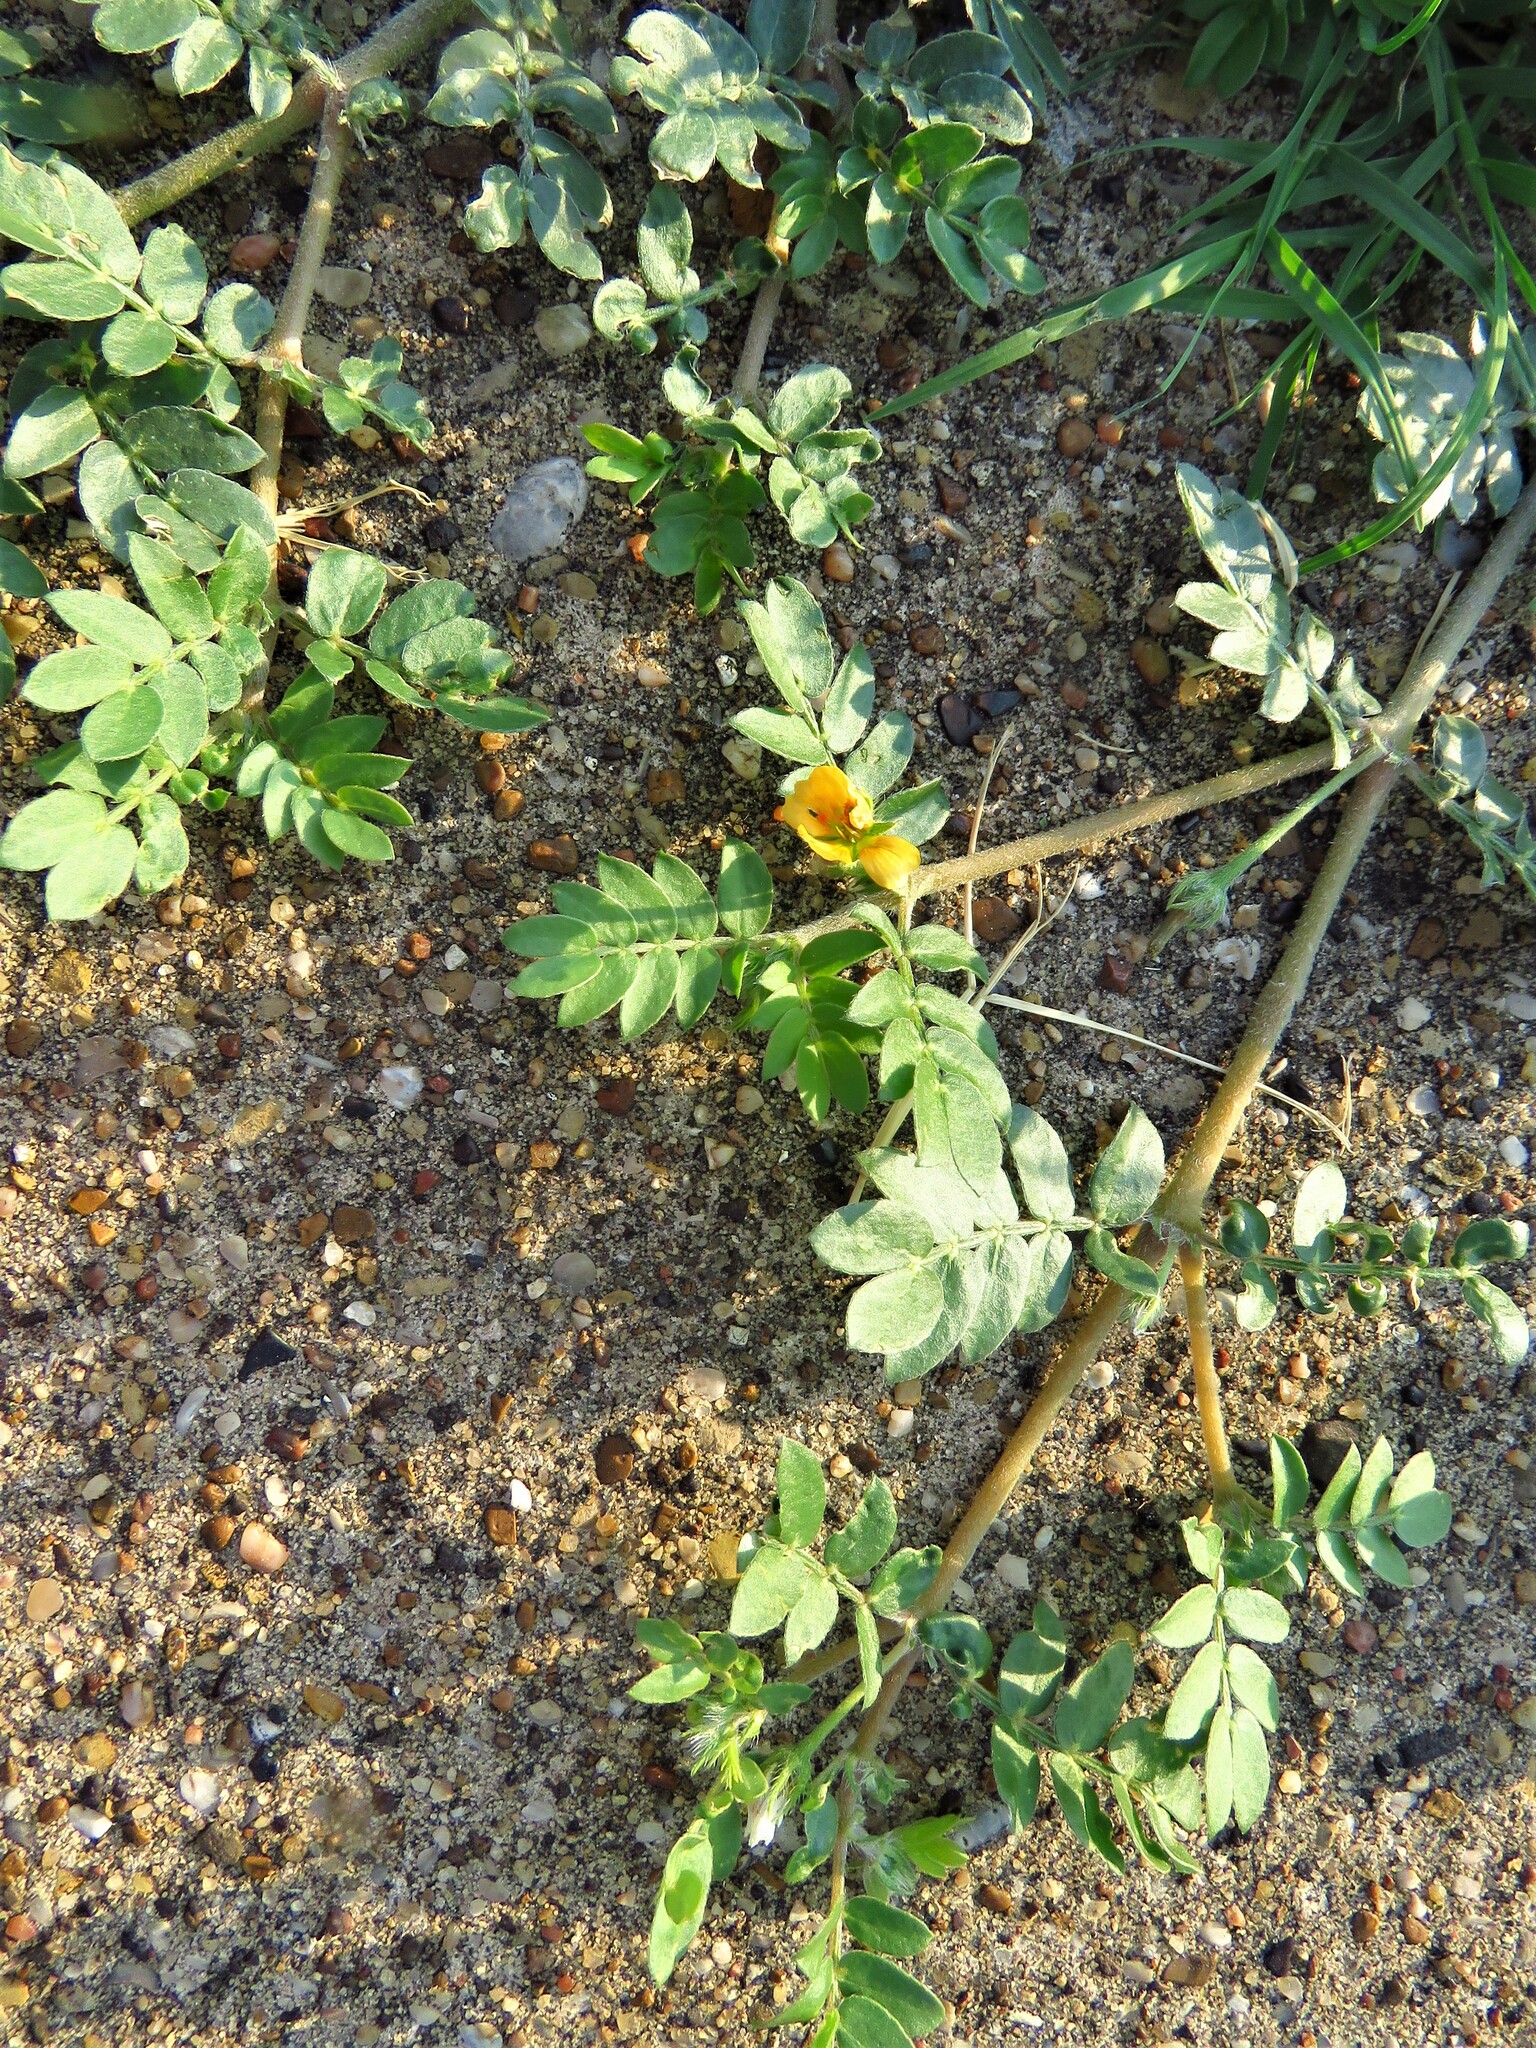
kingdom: Plantae
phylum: Tracheophyta
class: Magnoliopsida
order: Zygophyllales
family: Zygophyllaceae
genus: Tribulus
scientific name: Tribulus terrestris
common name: Puncturevine
